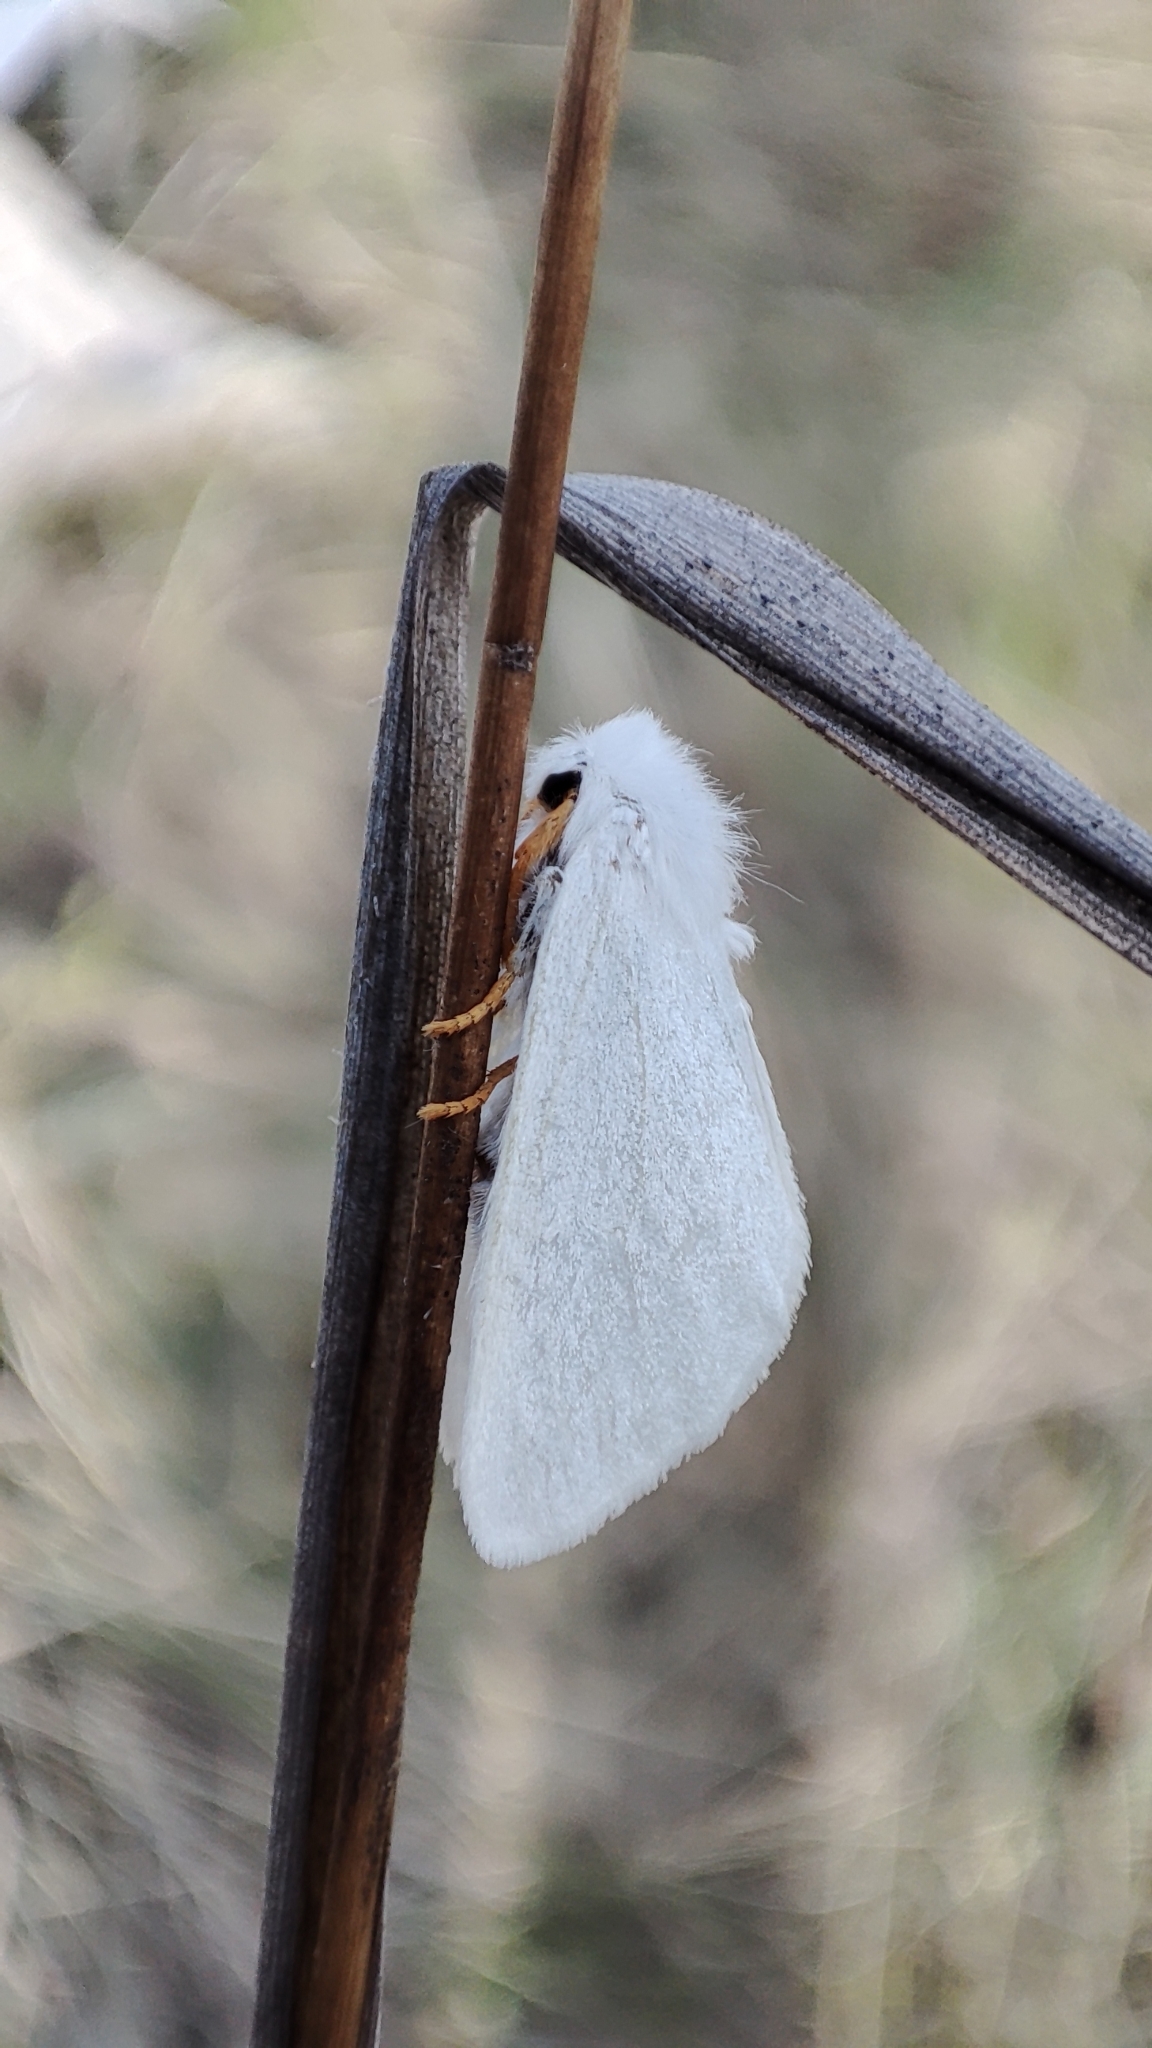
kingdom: Animalia
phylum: Arthropoda
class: Insecta
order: Lepidoptera
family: Erebidae
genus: Ivela
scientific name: Ivela
